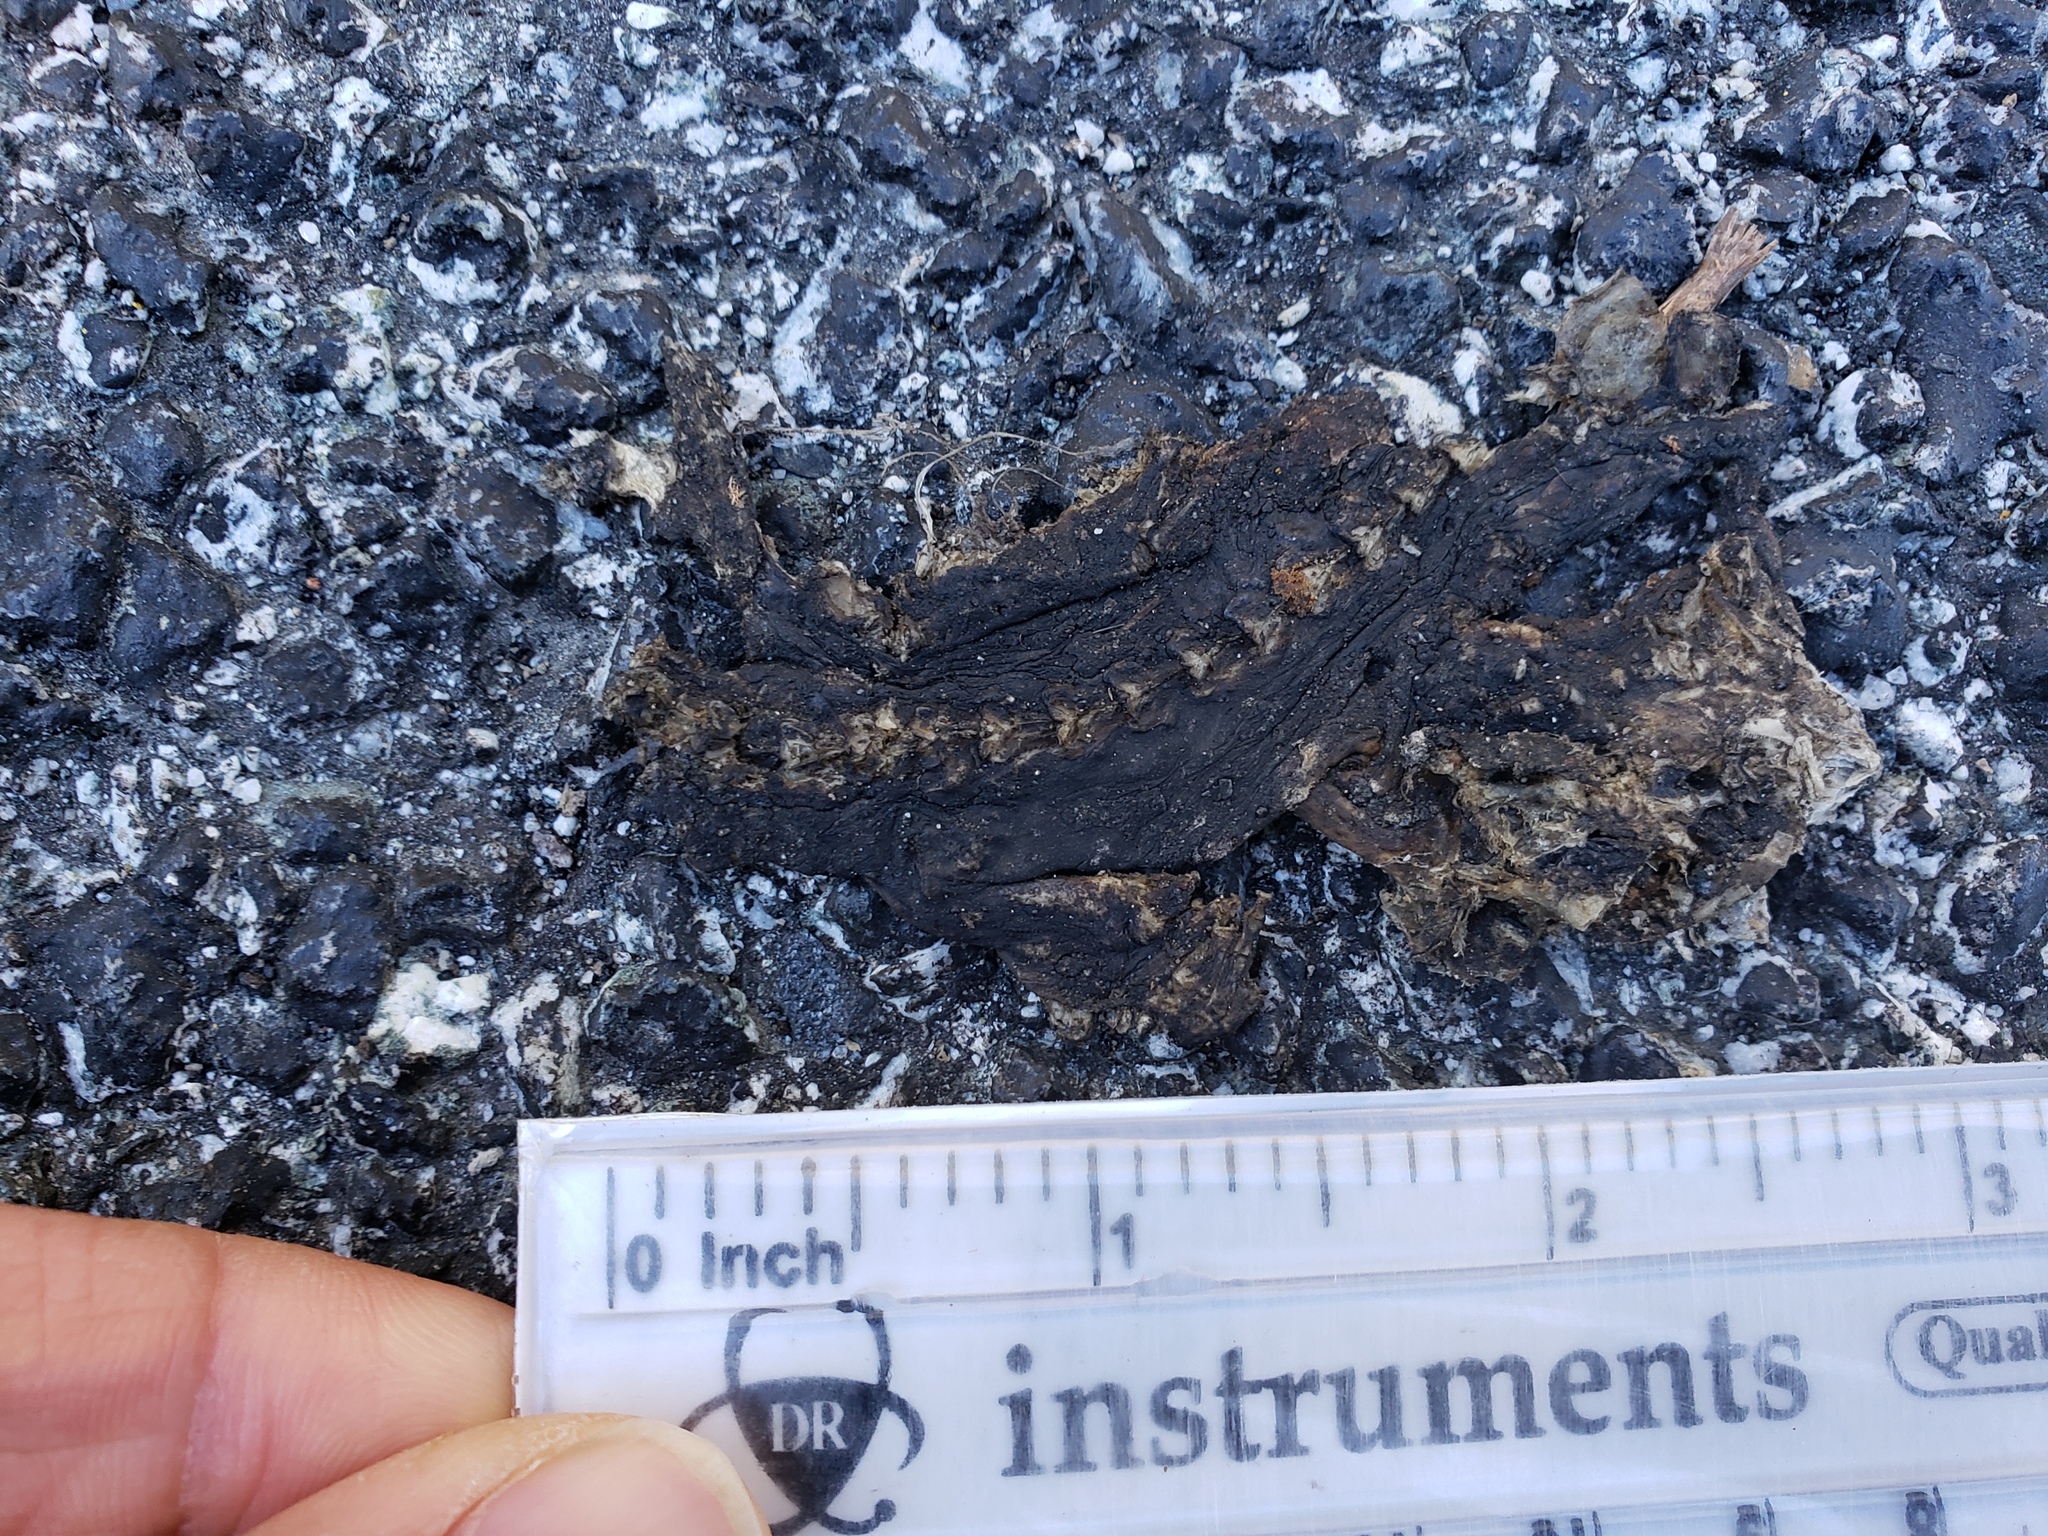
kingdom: Animalia
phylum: Chordata
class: Amphibia
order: Caudata
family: Salamandridae
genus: Taricha
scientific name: Taricha
